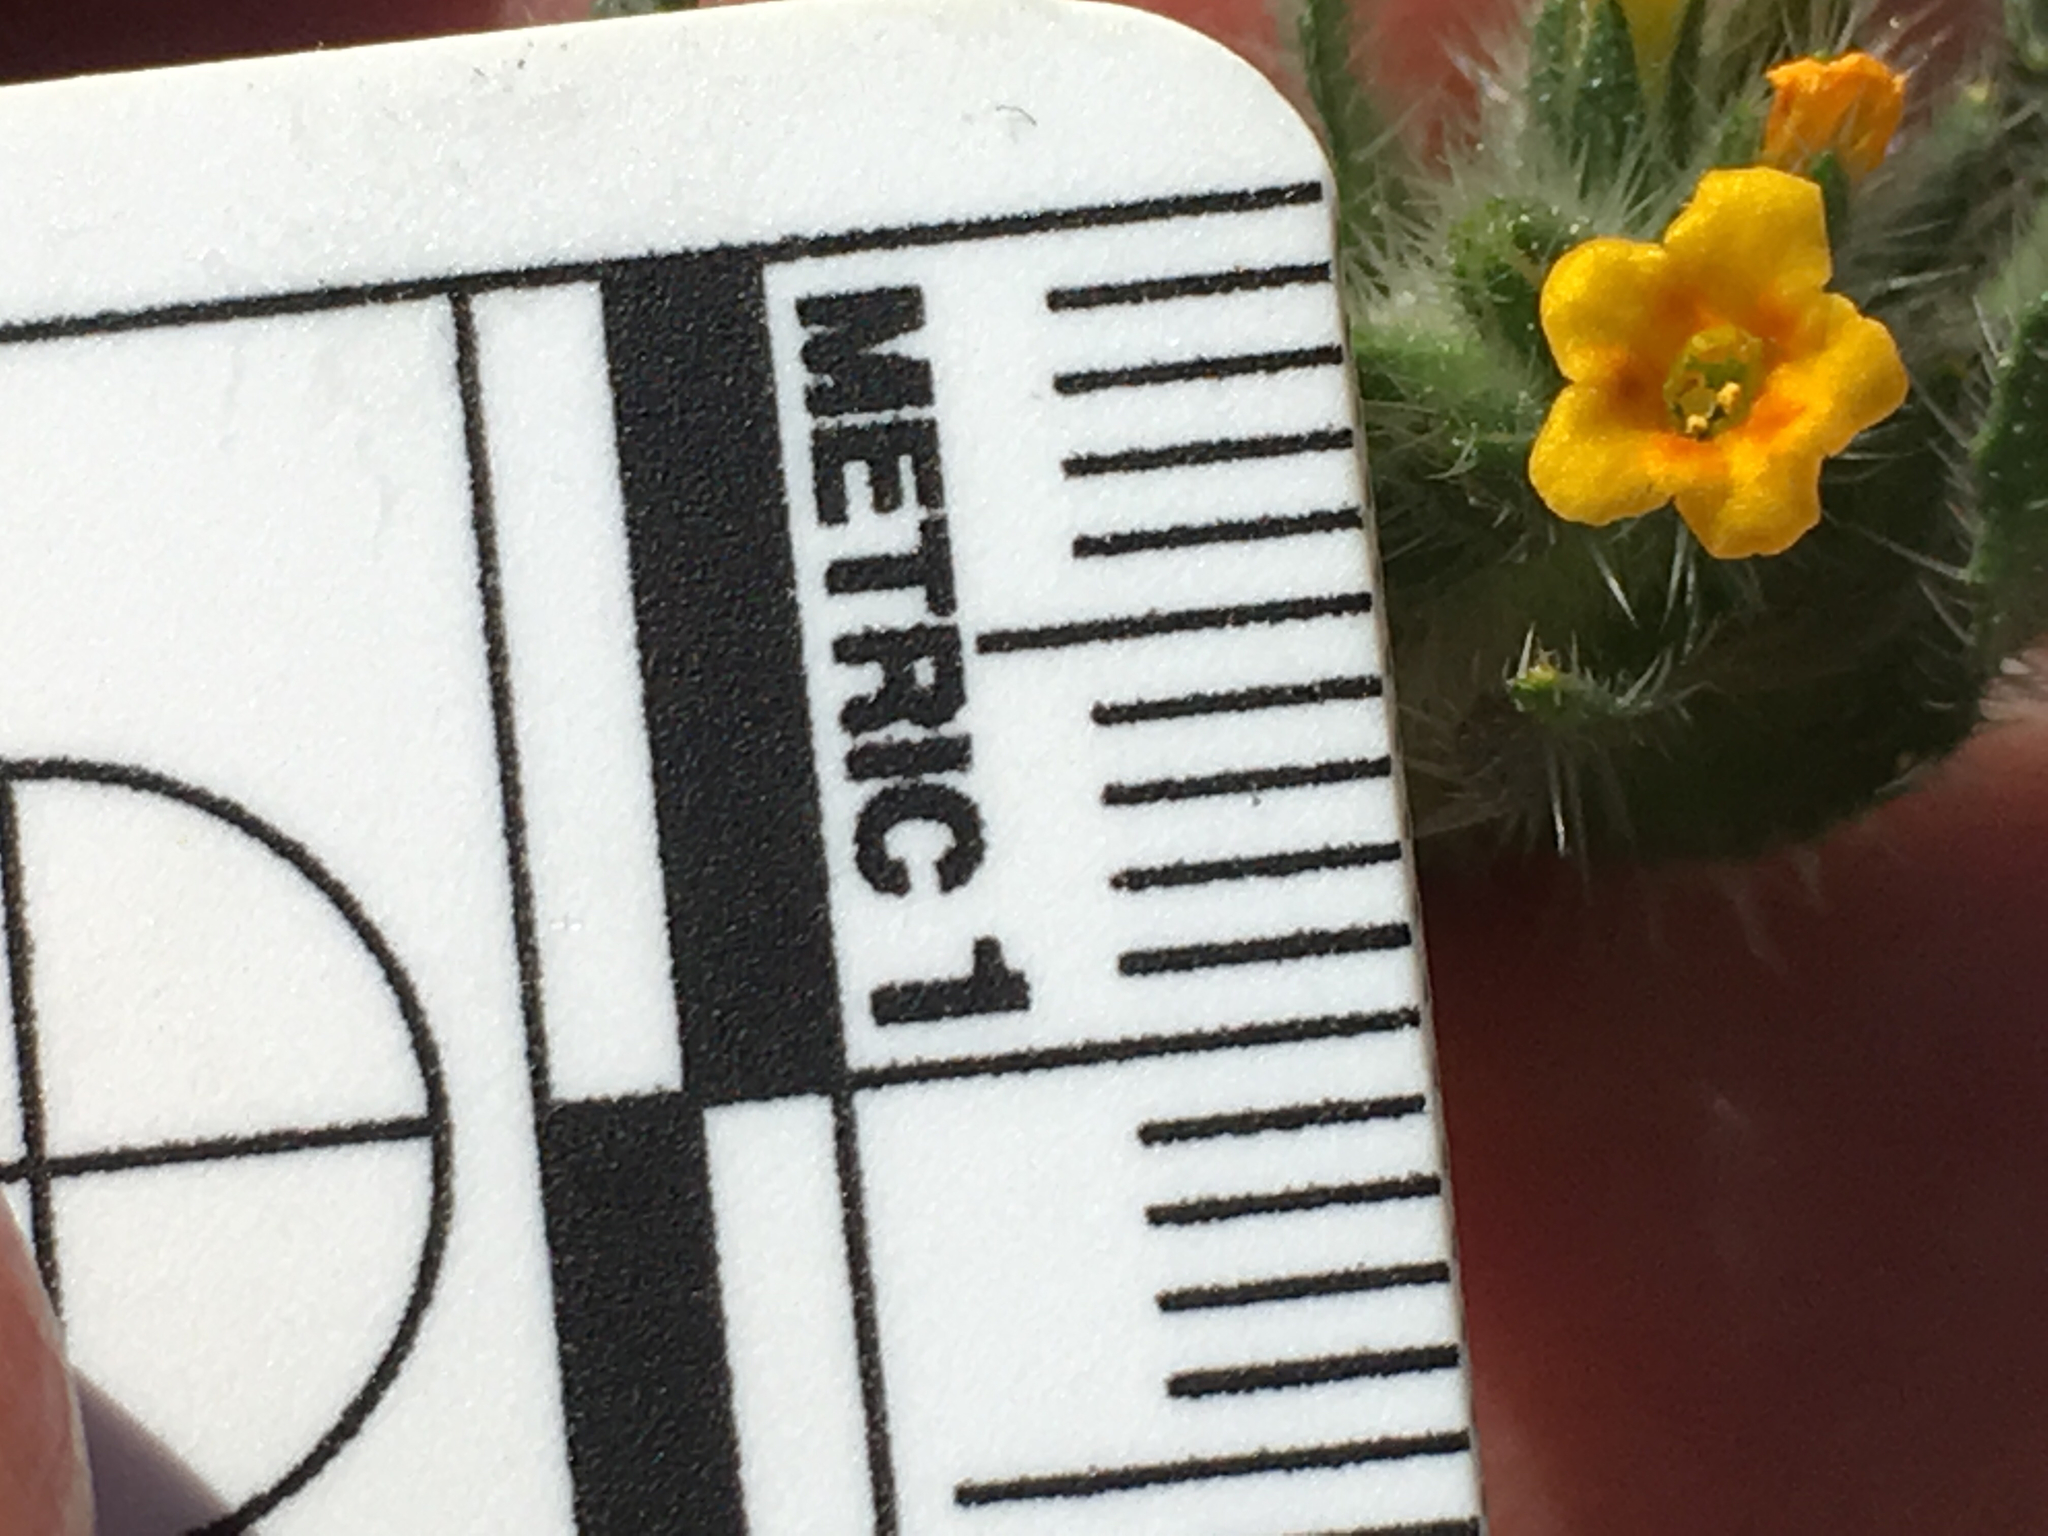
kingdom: Plantae
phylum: Tracheophyta
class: Magnoliopsida
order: Boraginales
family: Boraginaceae
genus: Amsinckia
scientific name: Amsinckia menziesii
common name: Menzies' fiddleneck
